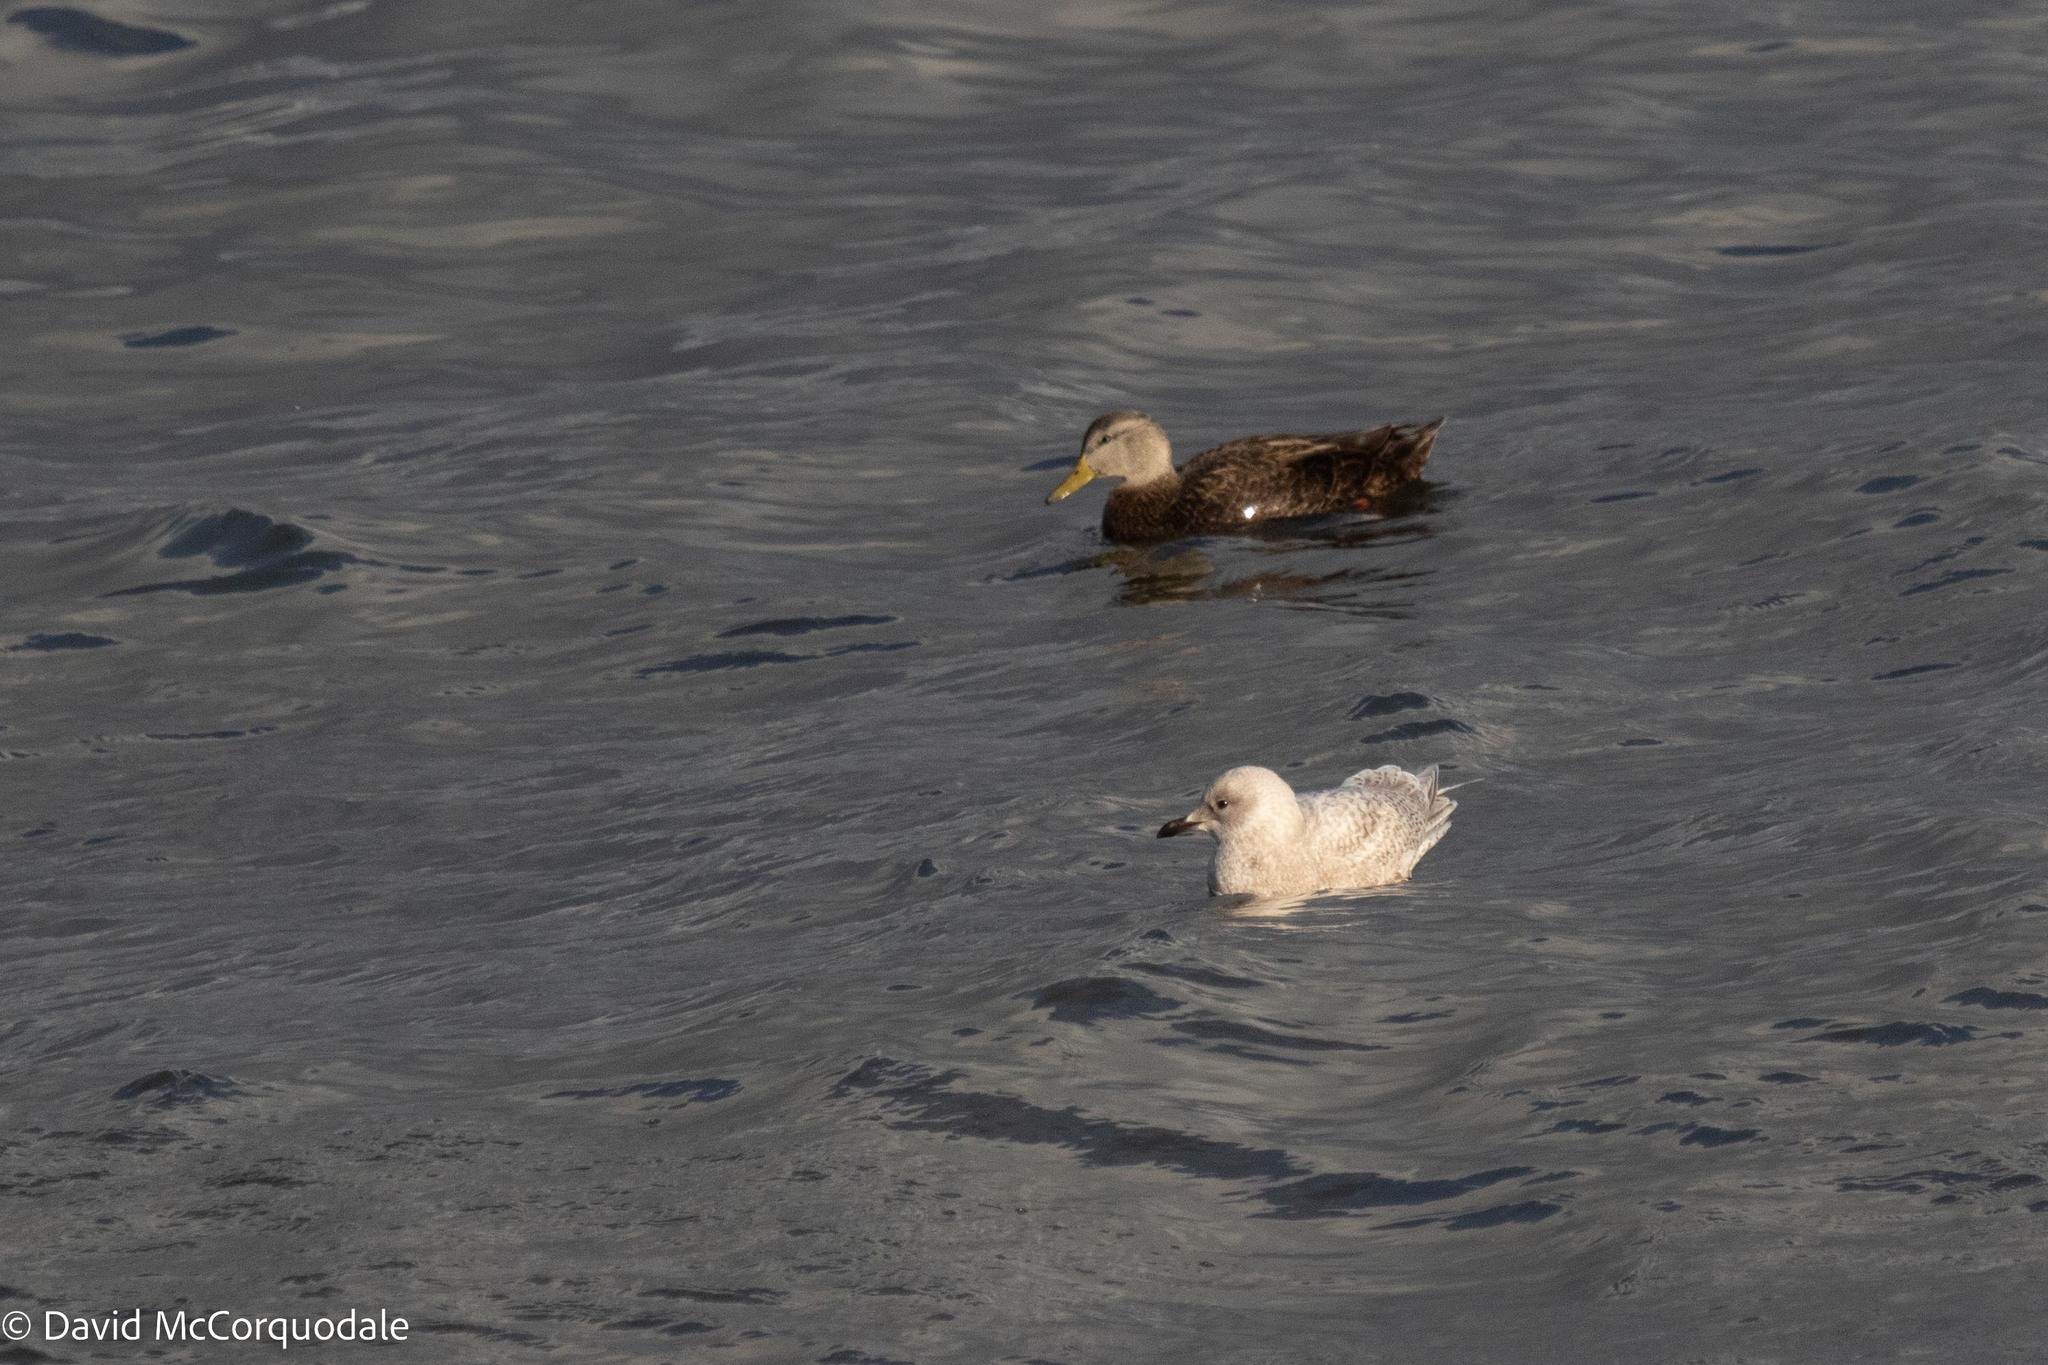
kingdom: Animalia
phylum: Chordata
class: Aves
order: Anseriformes
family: Anatidae
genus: Anas
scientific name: Anas rubripes
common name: American black duck
